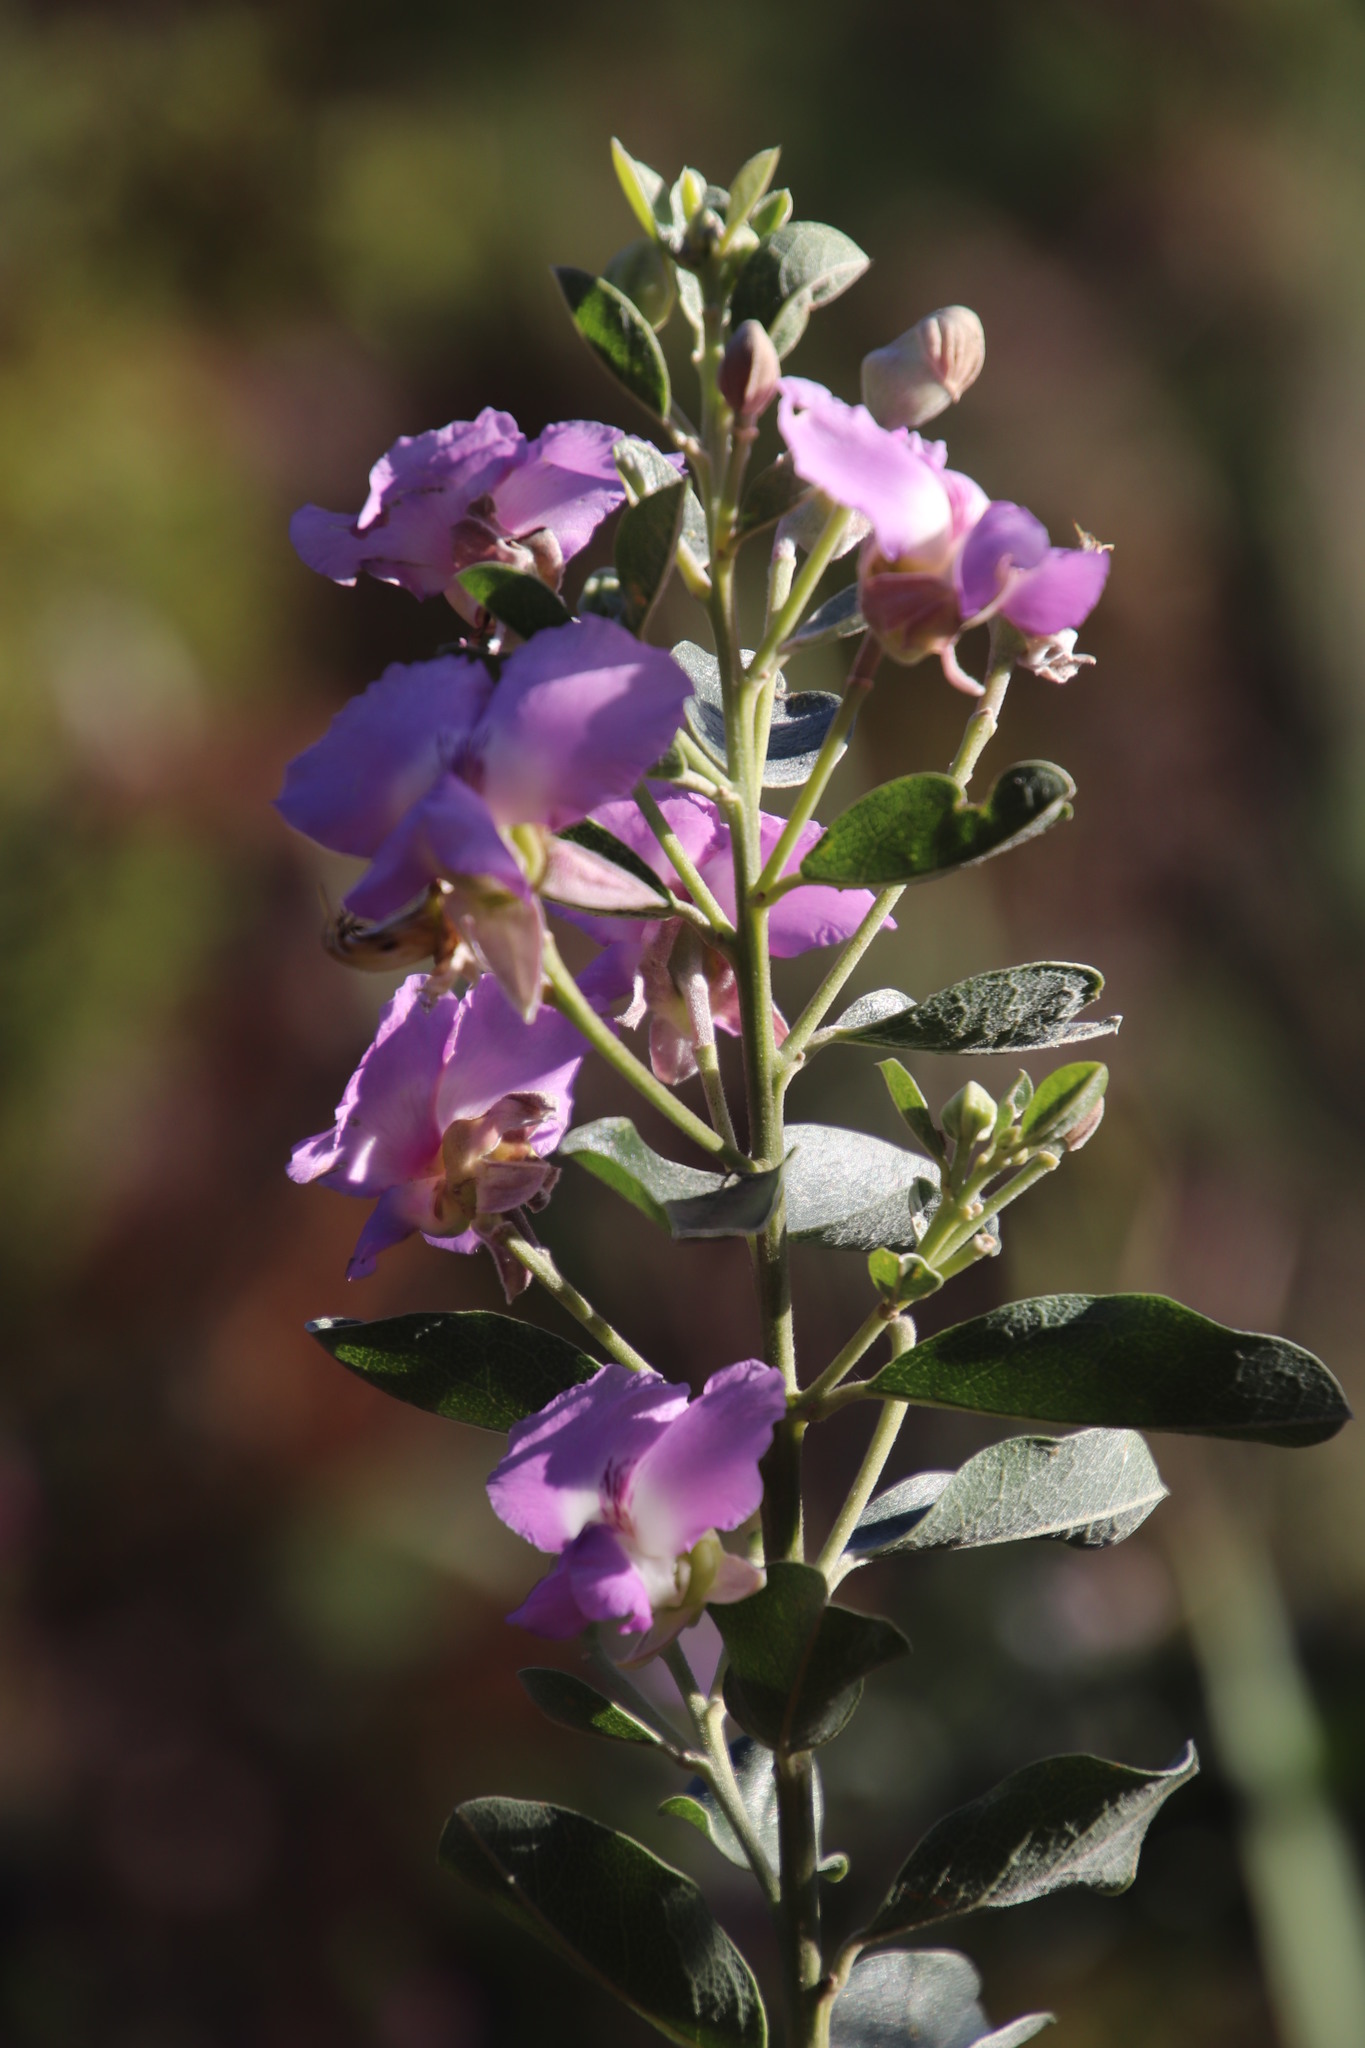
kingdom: Plantae
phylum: Tracheophyta
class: Magnoliopsida
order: Fabales
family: Fabaceae
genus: Podalyria
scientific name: Podalyria calyptrata
